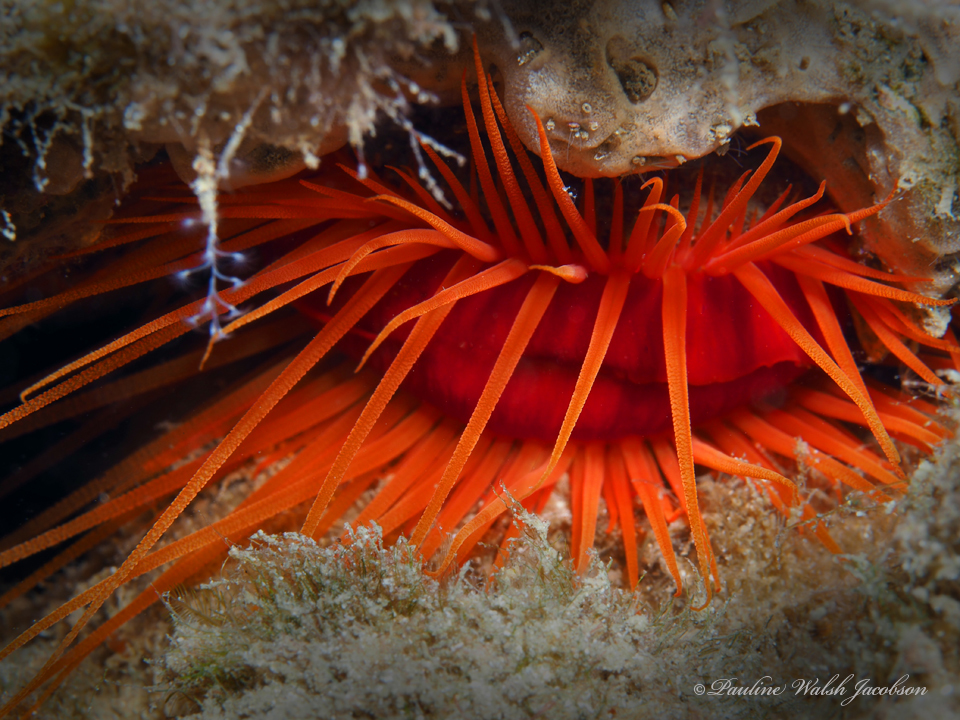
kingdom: Animalia
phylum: Mollusca
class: Bivalvia
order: Limida
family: Limidae
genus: Ctenoides
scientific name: Ctenoides scaber
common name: Rough fileclam
